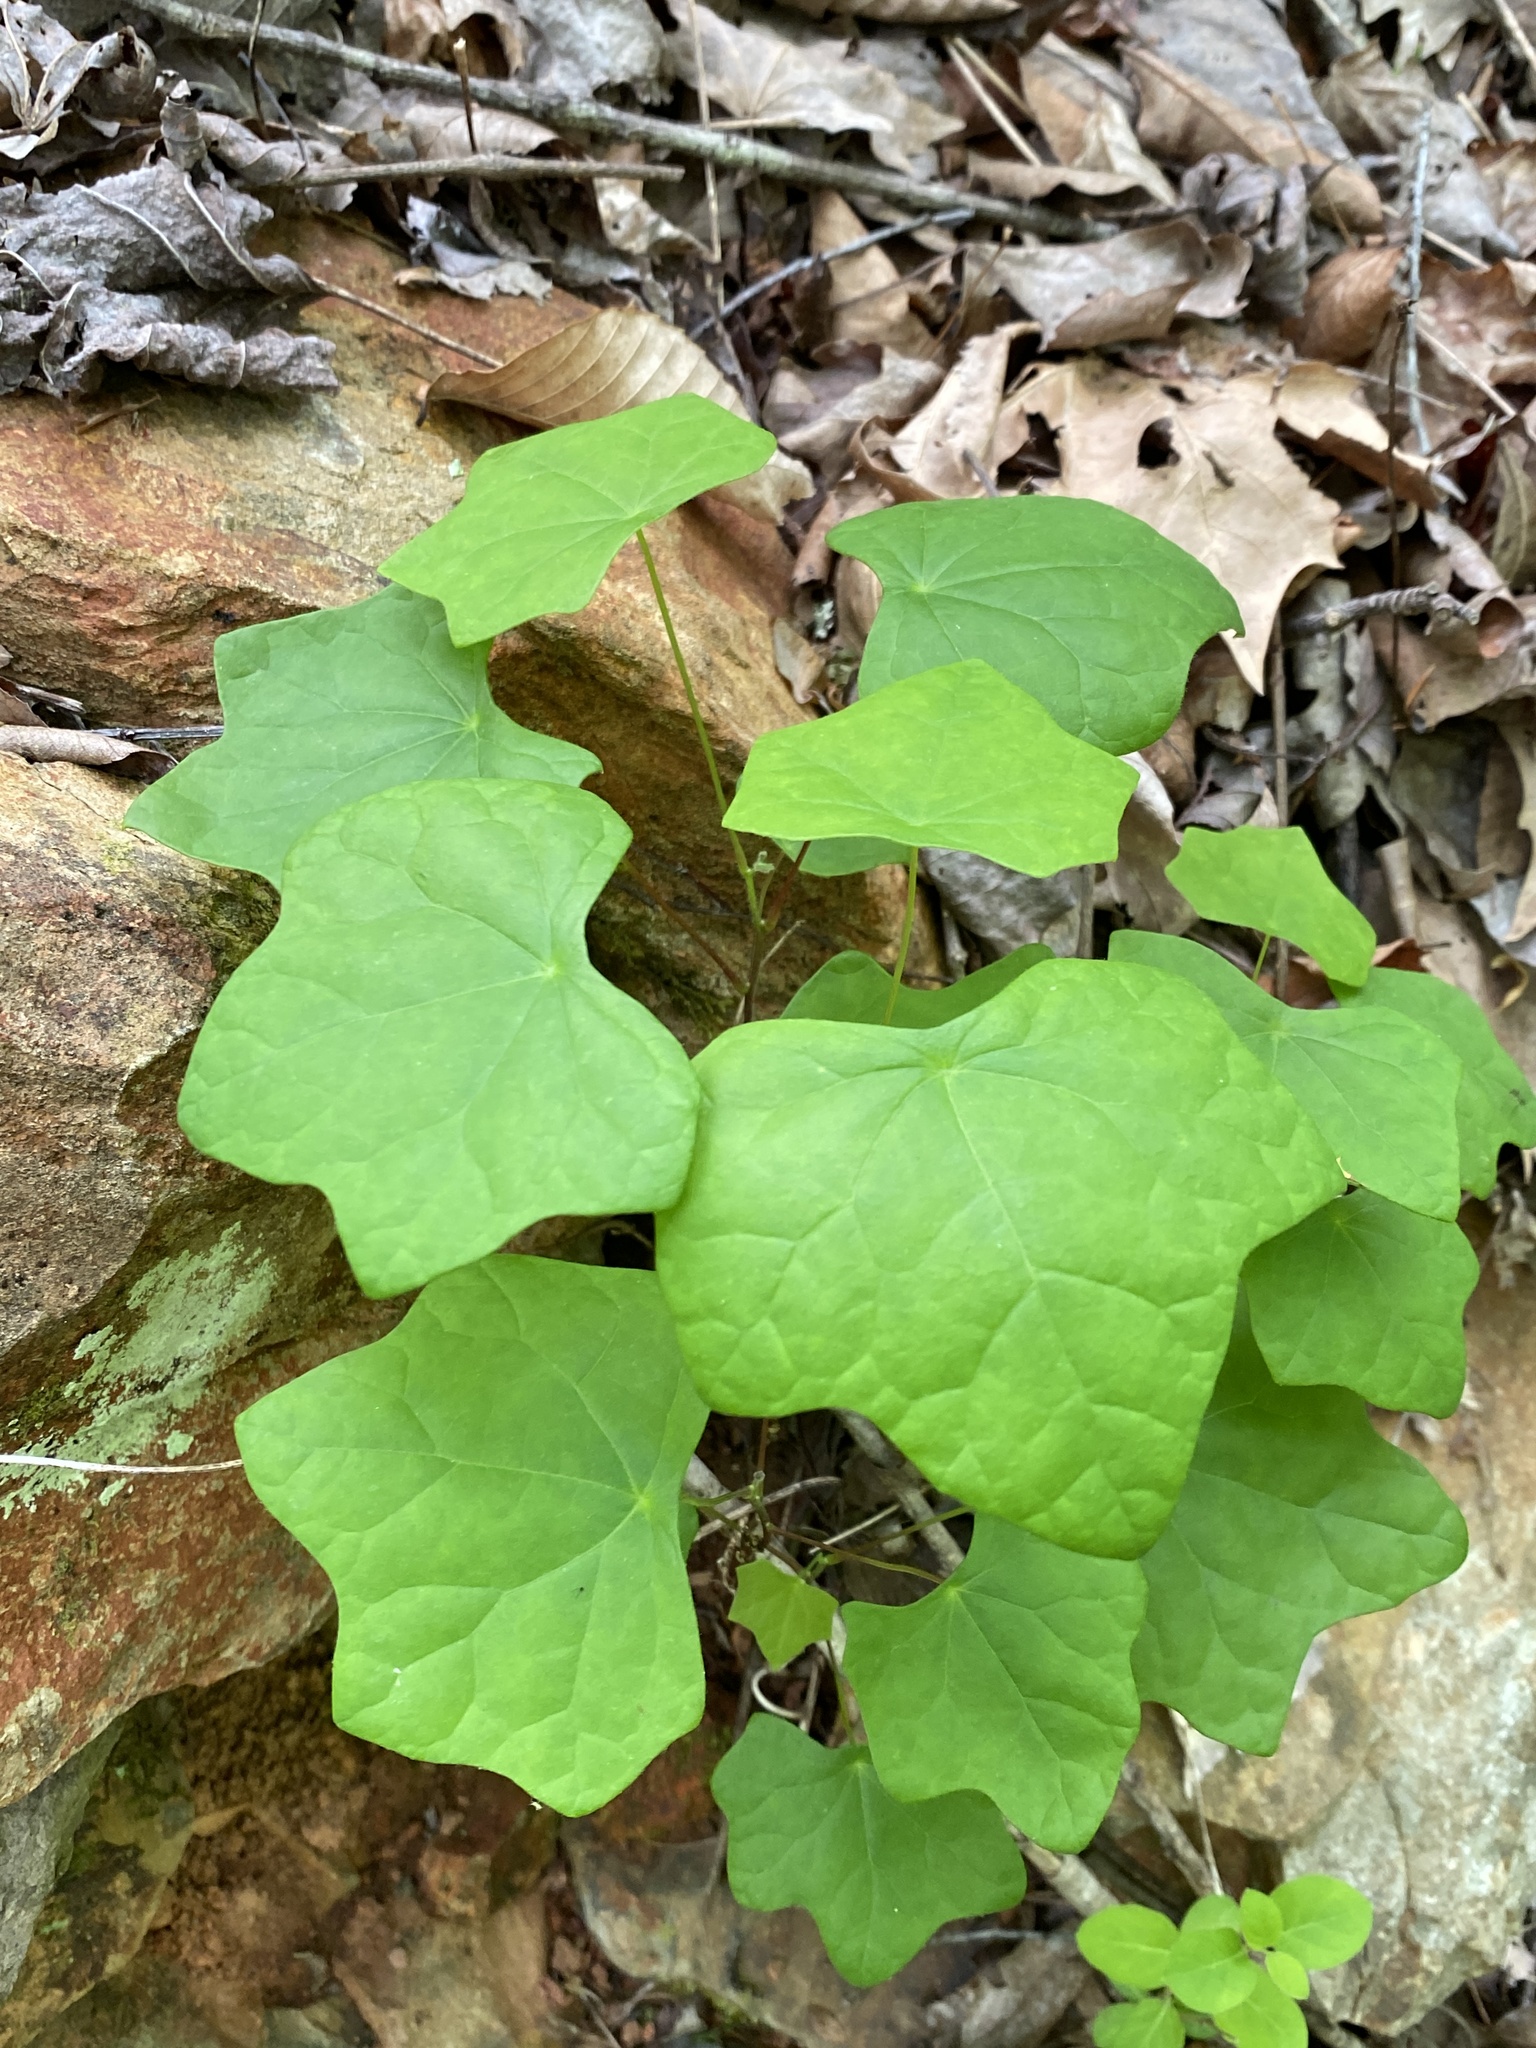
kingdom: Plantae
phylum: Tracheophyta
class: Magnoliopsida
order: Ranunculales
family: Menispermaceae
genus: Menispermum
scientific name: Menispermum canadense
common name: Moonseed
